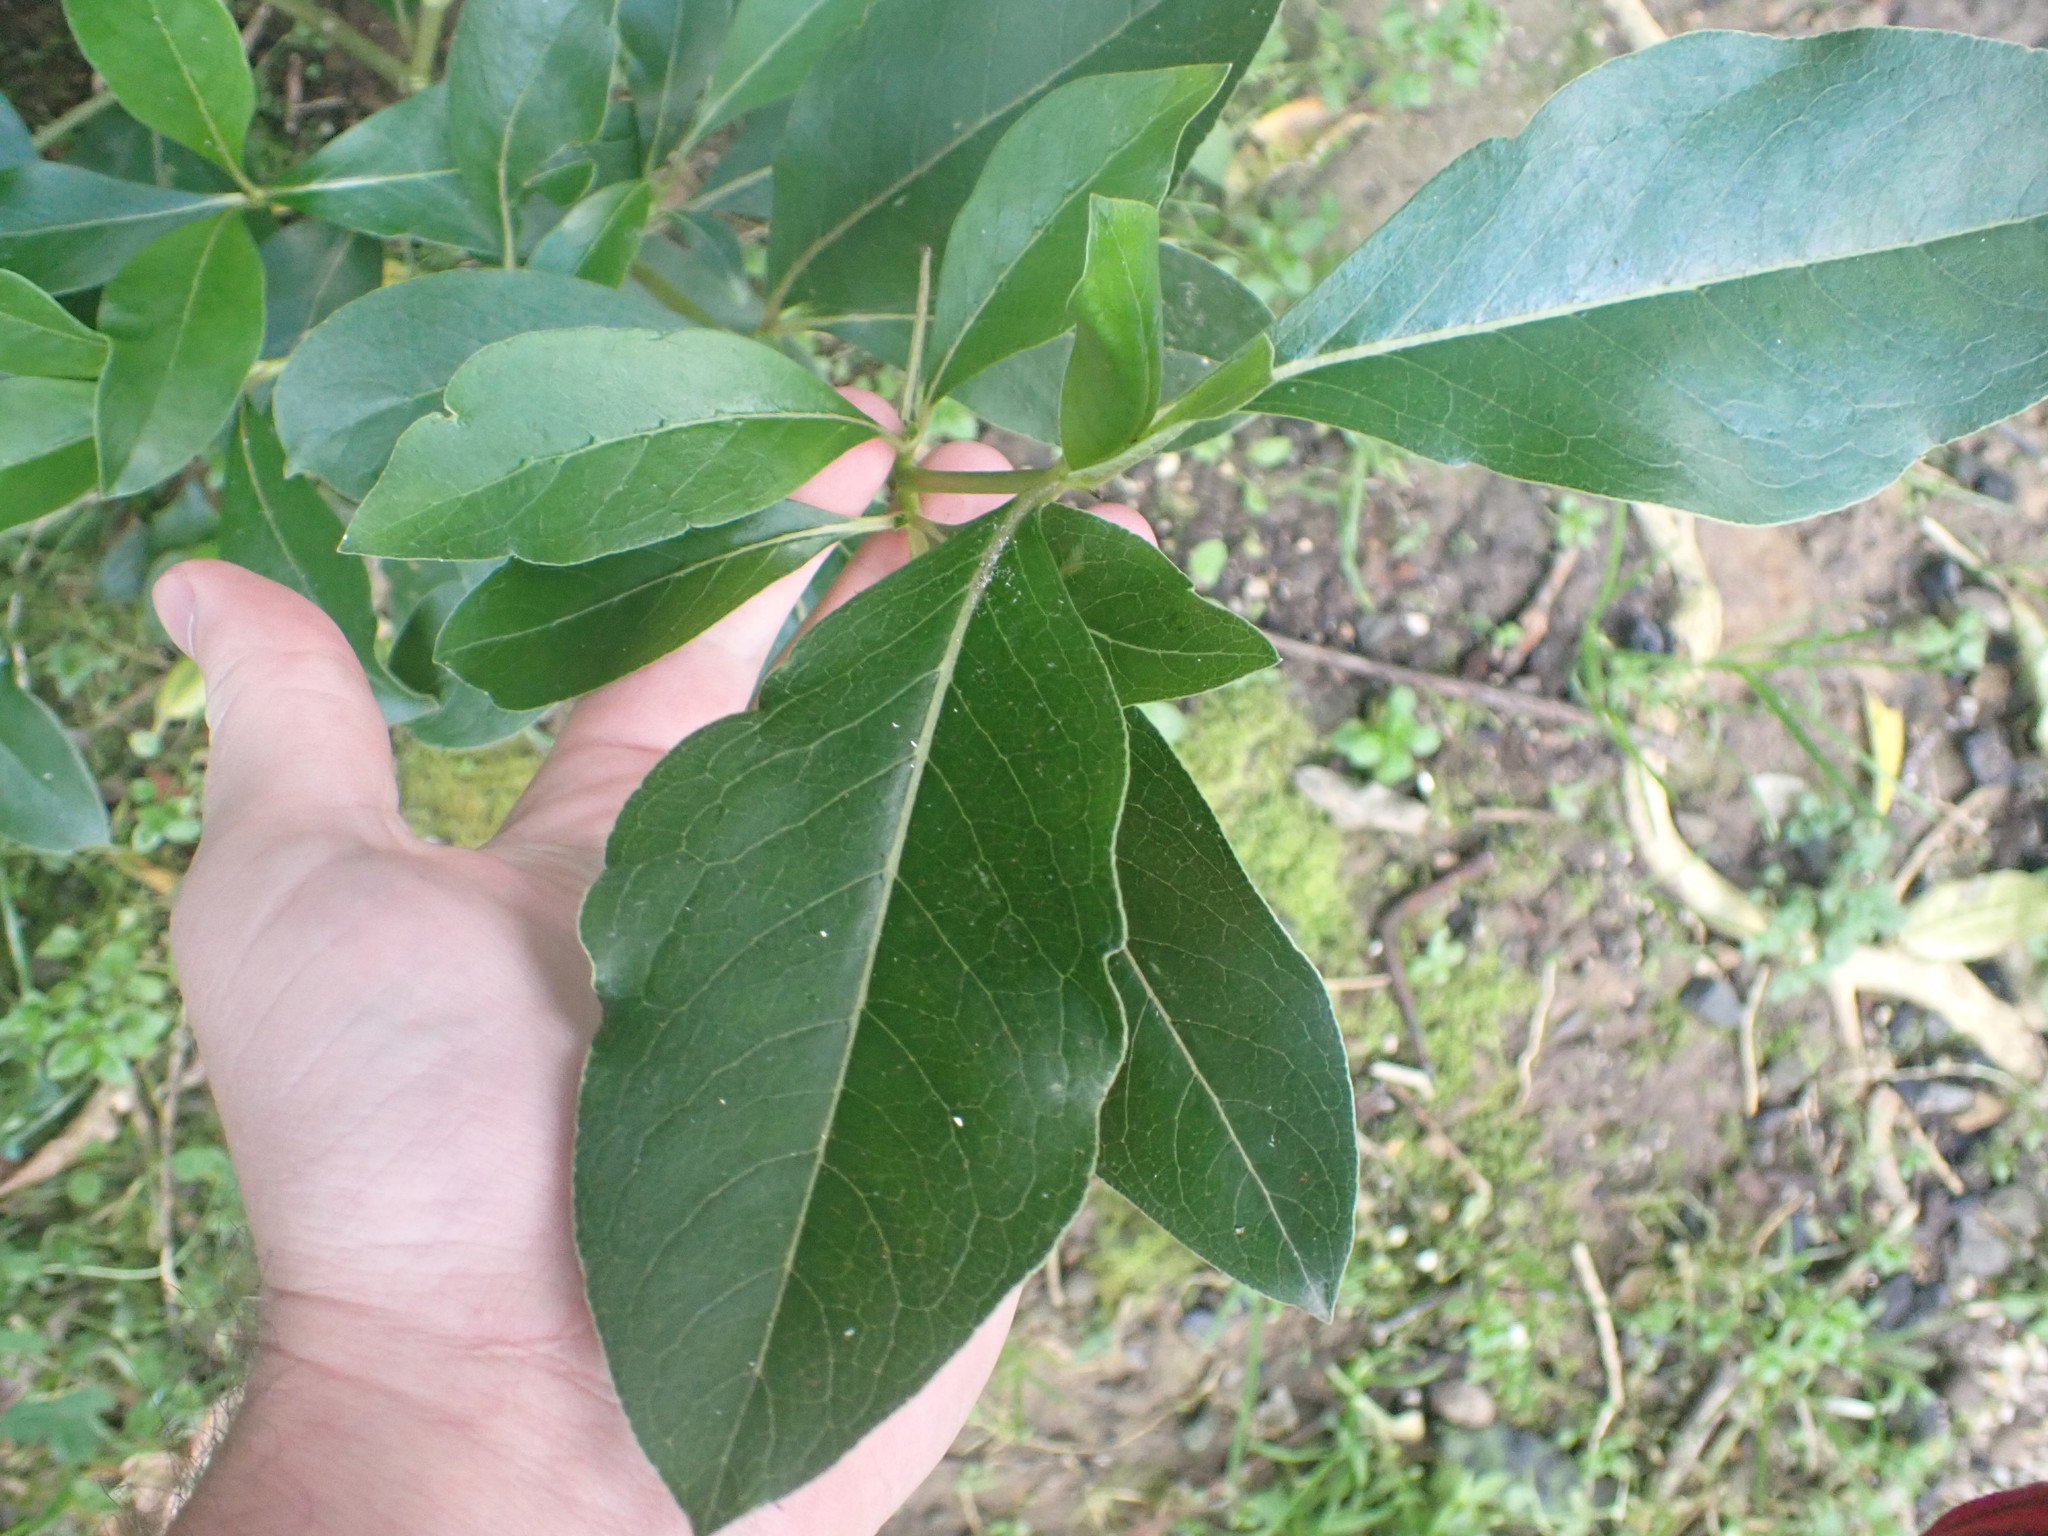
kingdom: Plantae
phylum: Tracheophyta
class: Magnoliopsida
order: Gentianales
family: Rubiaceae
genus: Coprosma
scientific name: Coprosma robusta
